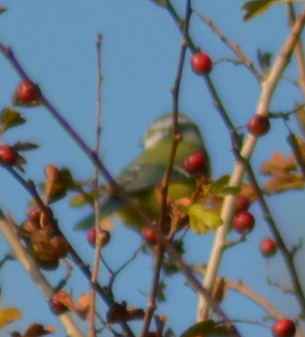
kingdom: Animalia
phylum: Chordata
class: Aves
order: Passeriformes
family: Paridae
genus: Cyanistes
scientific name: Cyanistes caeruleus
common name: Eurasian blue tit
